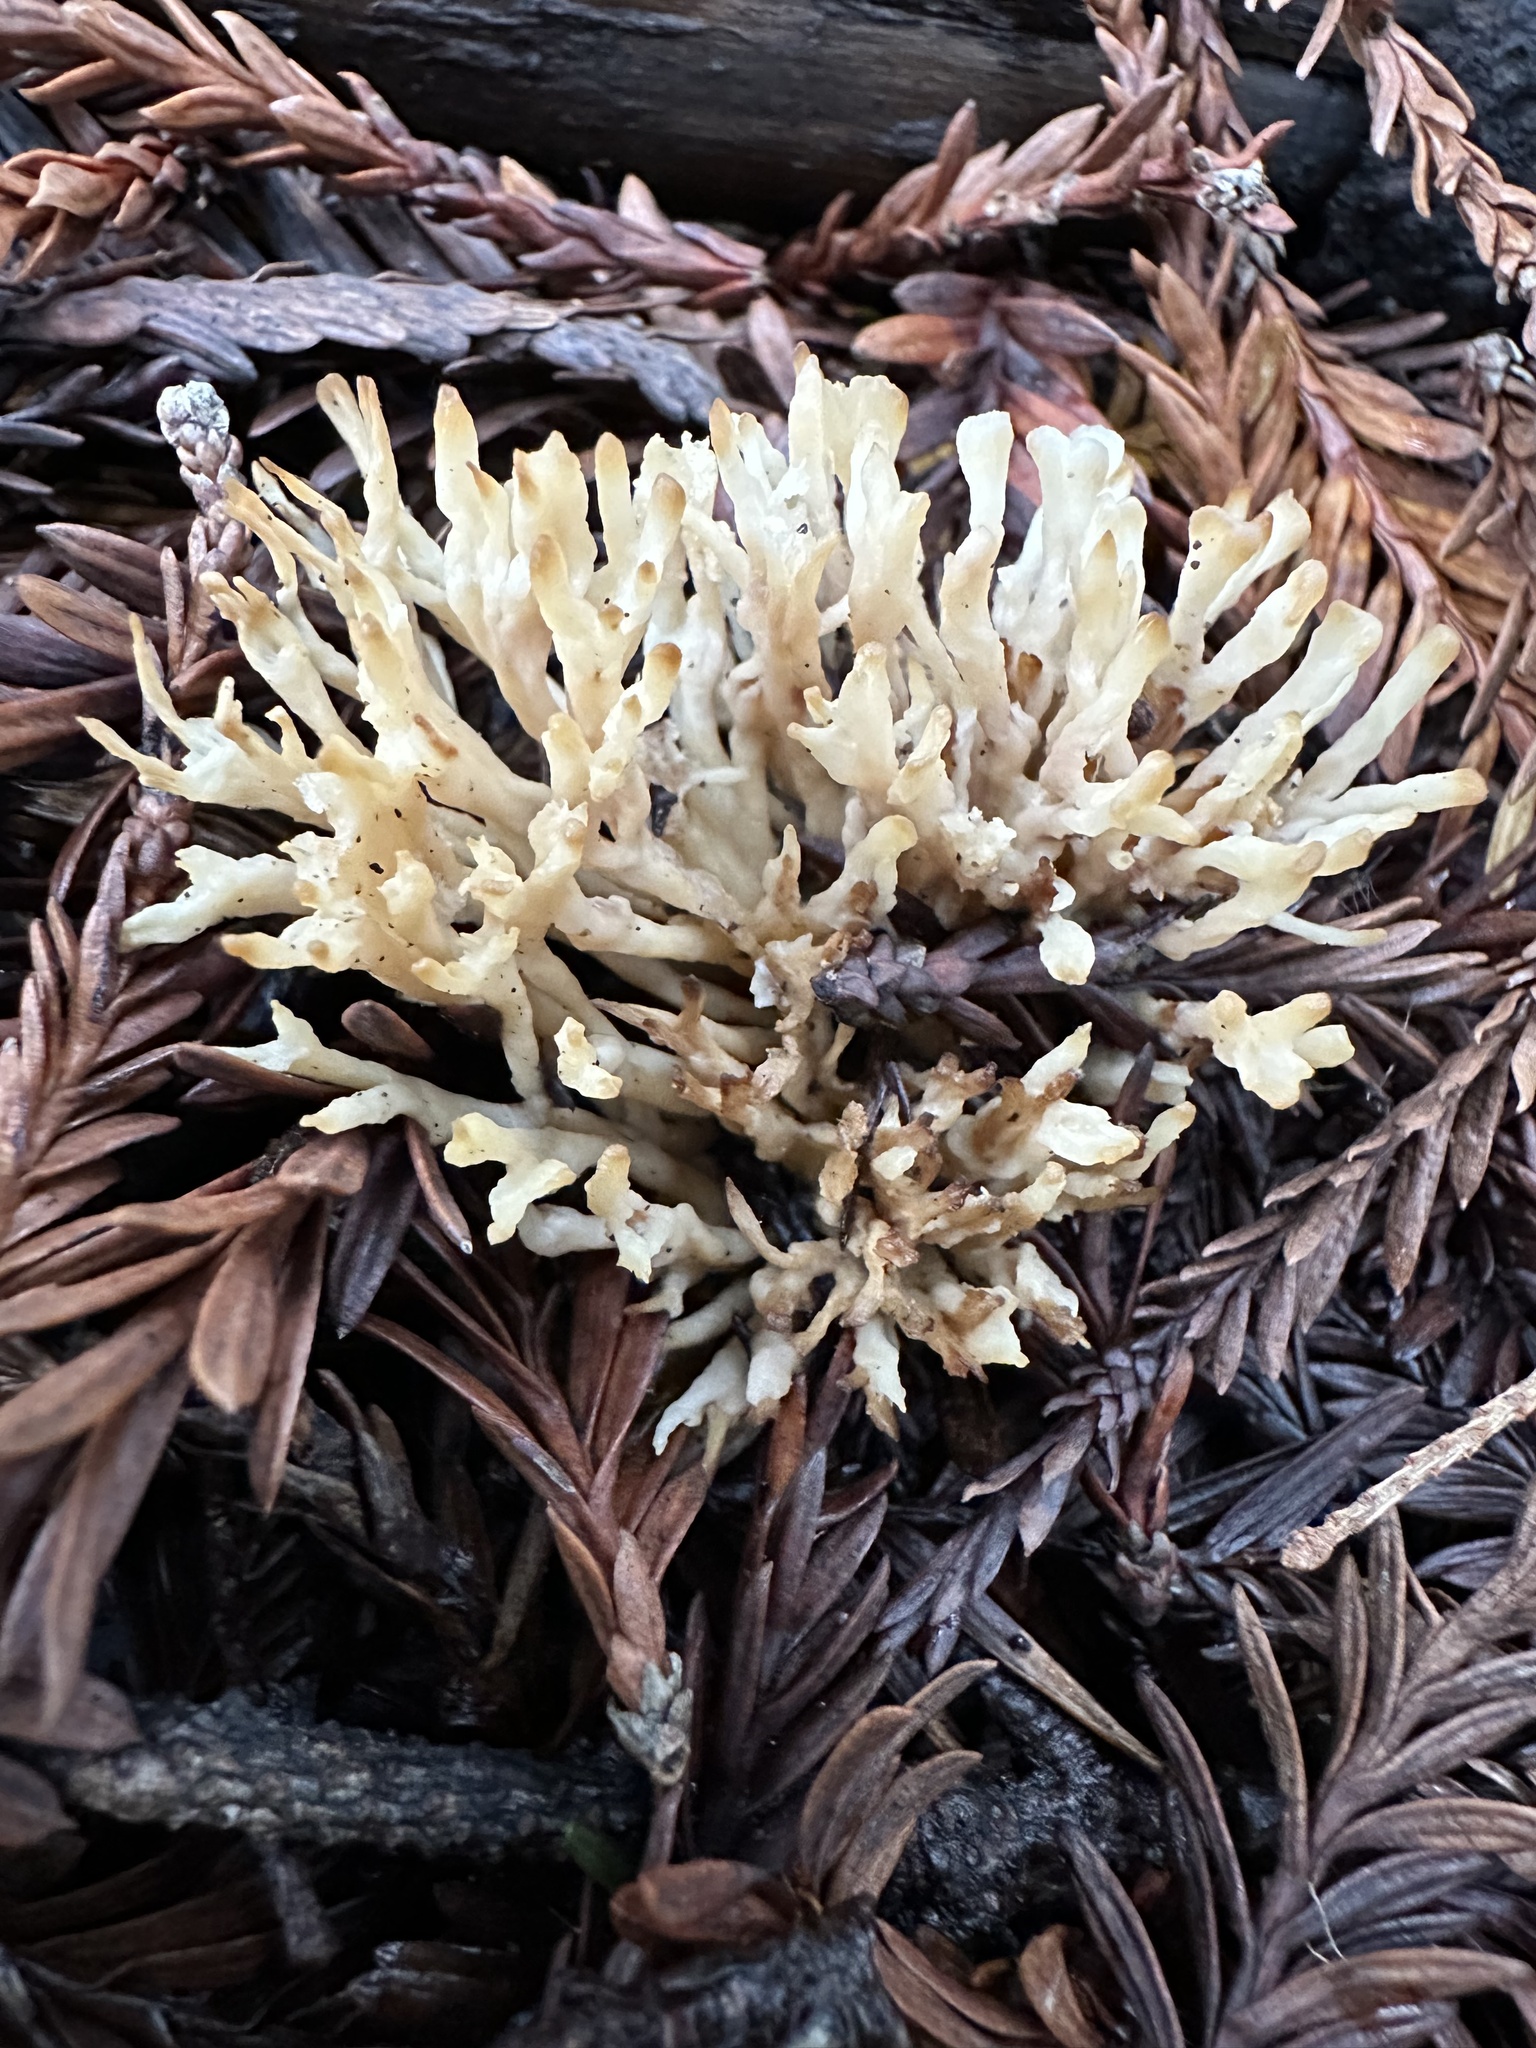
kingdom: Fungi
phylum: Basidiomycota
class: Agaricomycetes
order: Tremellodendropsidales
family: Tremellodendropsidaceae
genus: Tremellodendropsis
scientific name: Tremellodendropsis tuberosa
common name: Ashen coral
